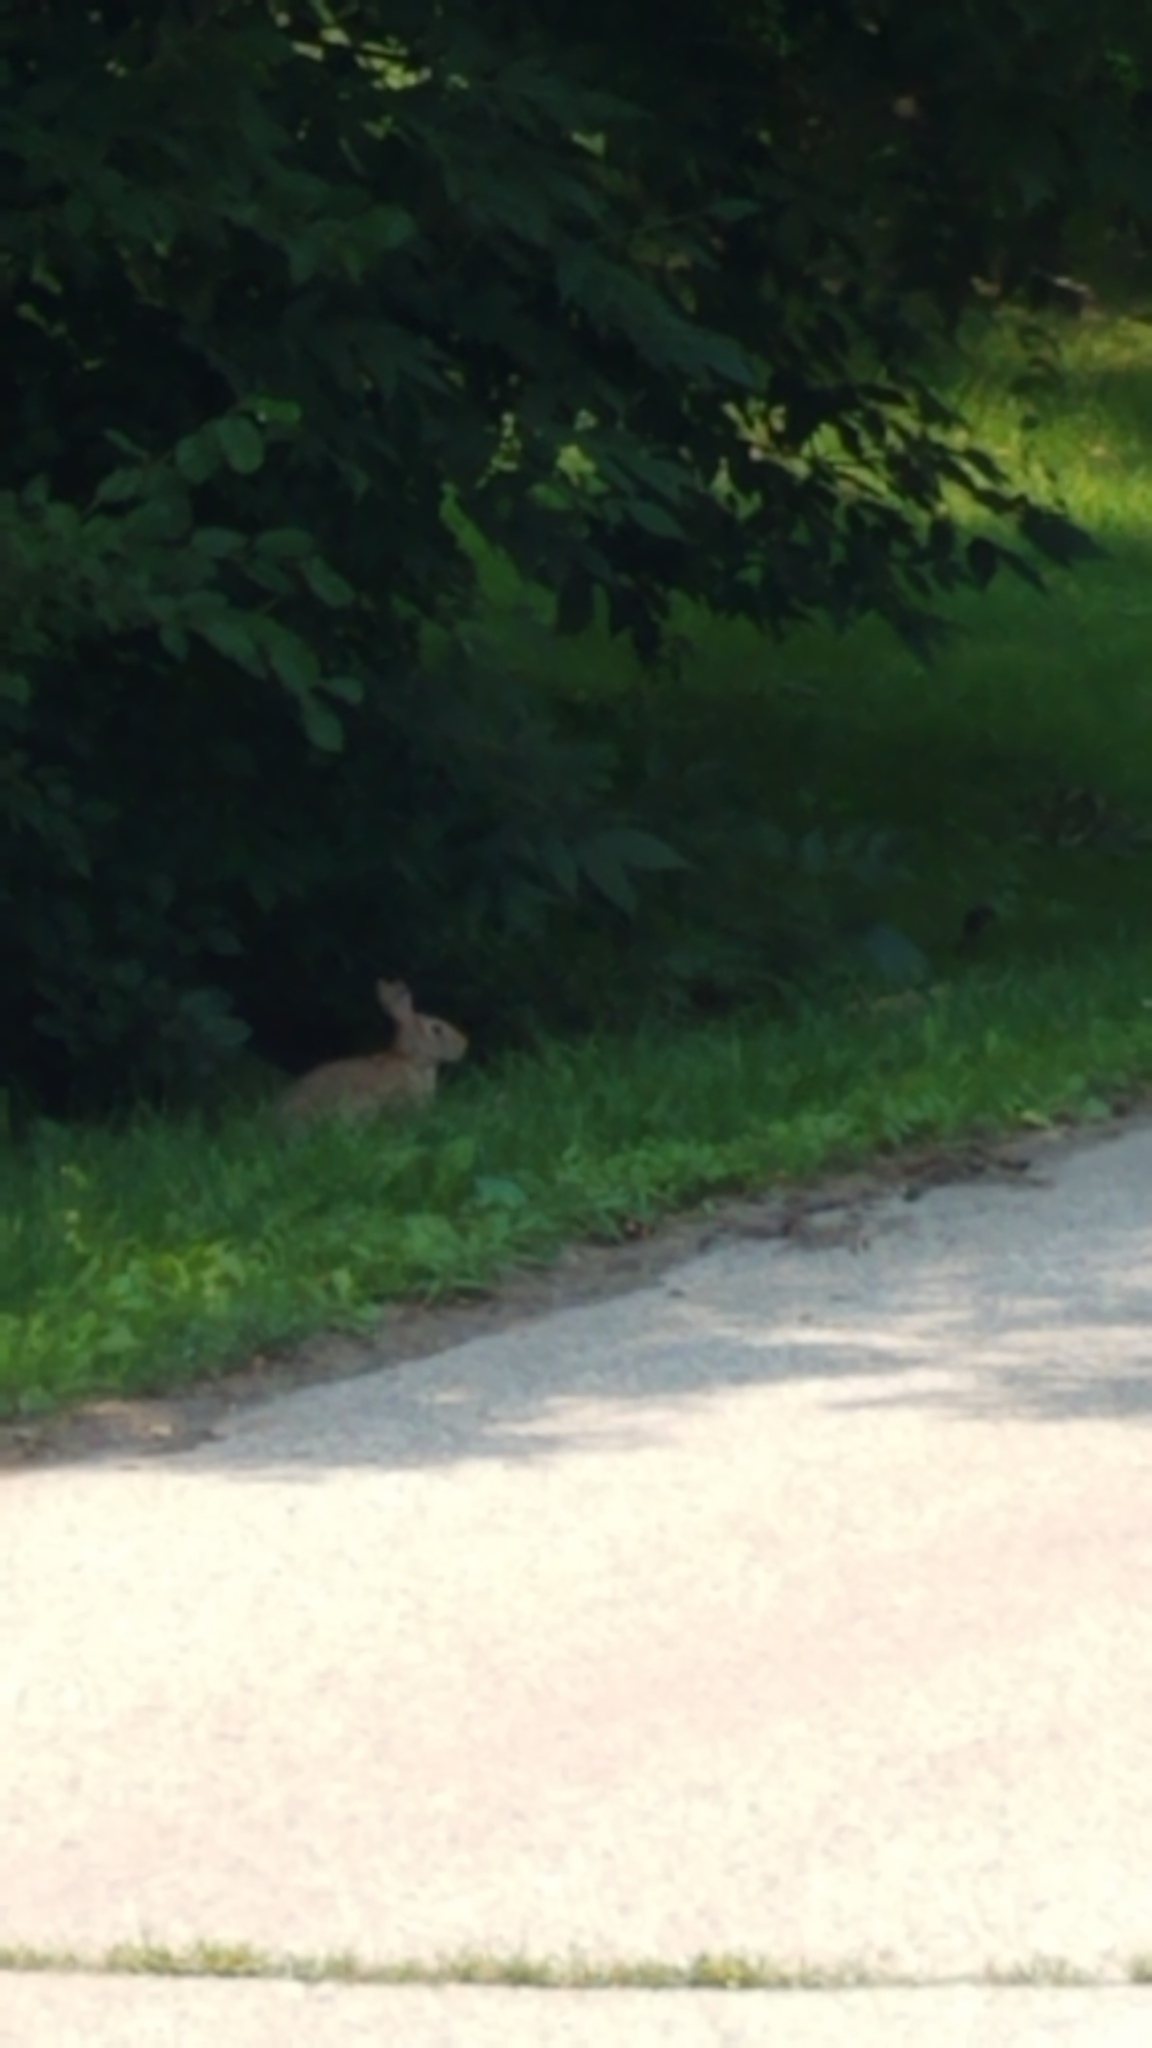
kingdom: Animalia
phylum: Chordata
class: Mammalia
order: Lagomorpha
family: Leporidae
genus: Sylvilagus
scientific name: Sylvilagus floridanus
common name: Eastern cottontail
